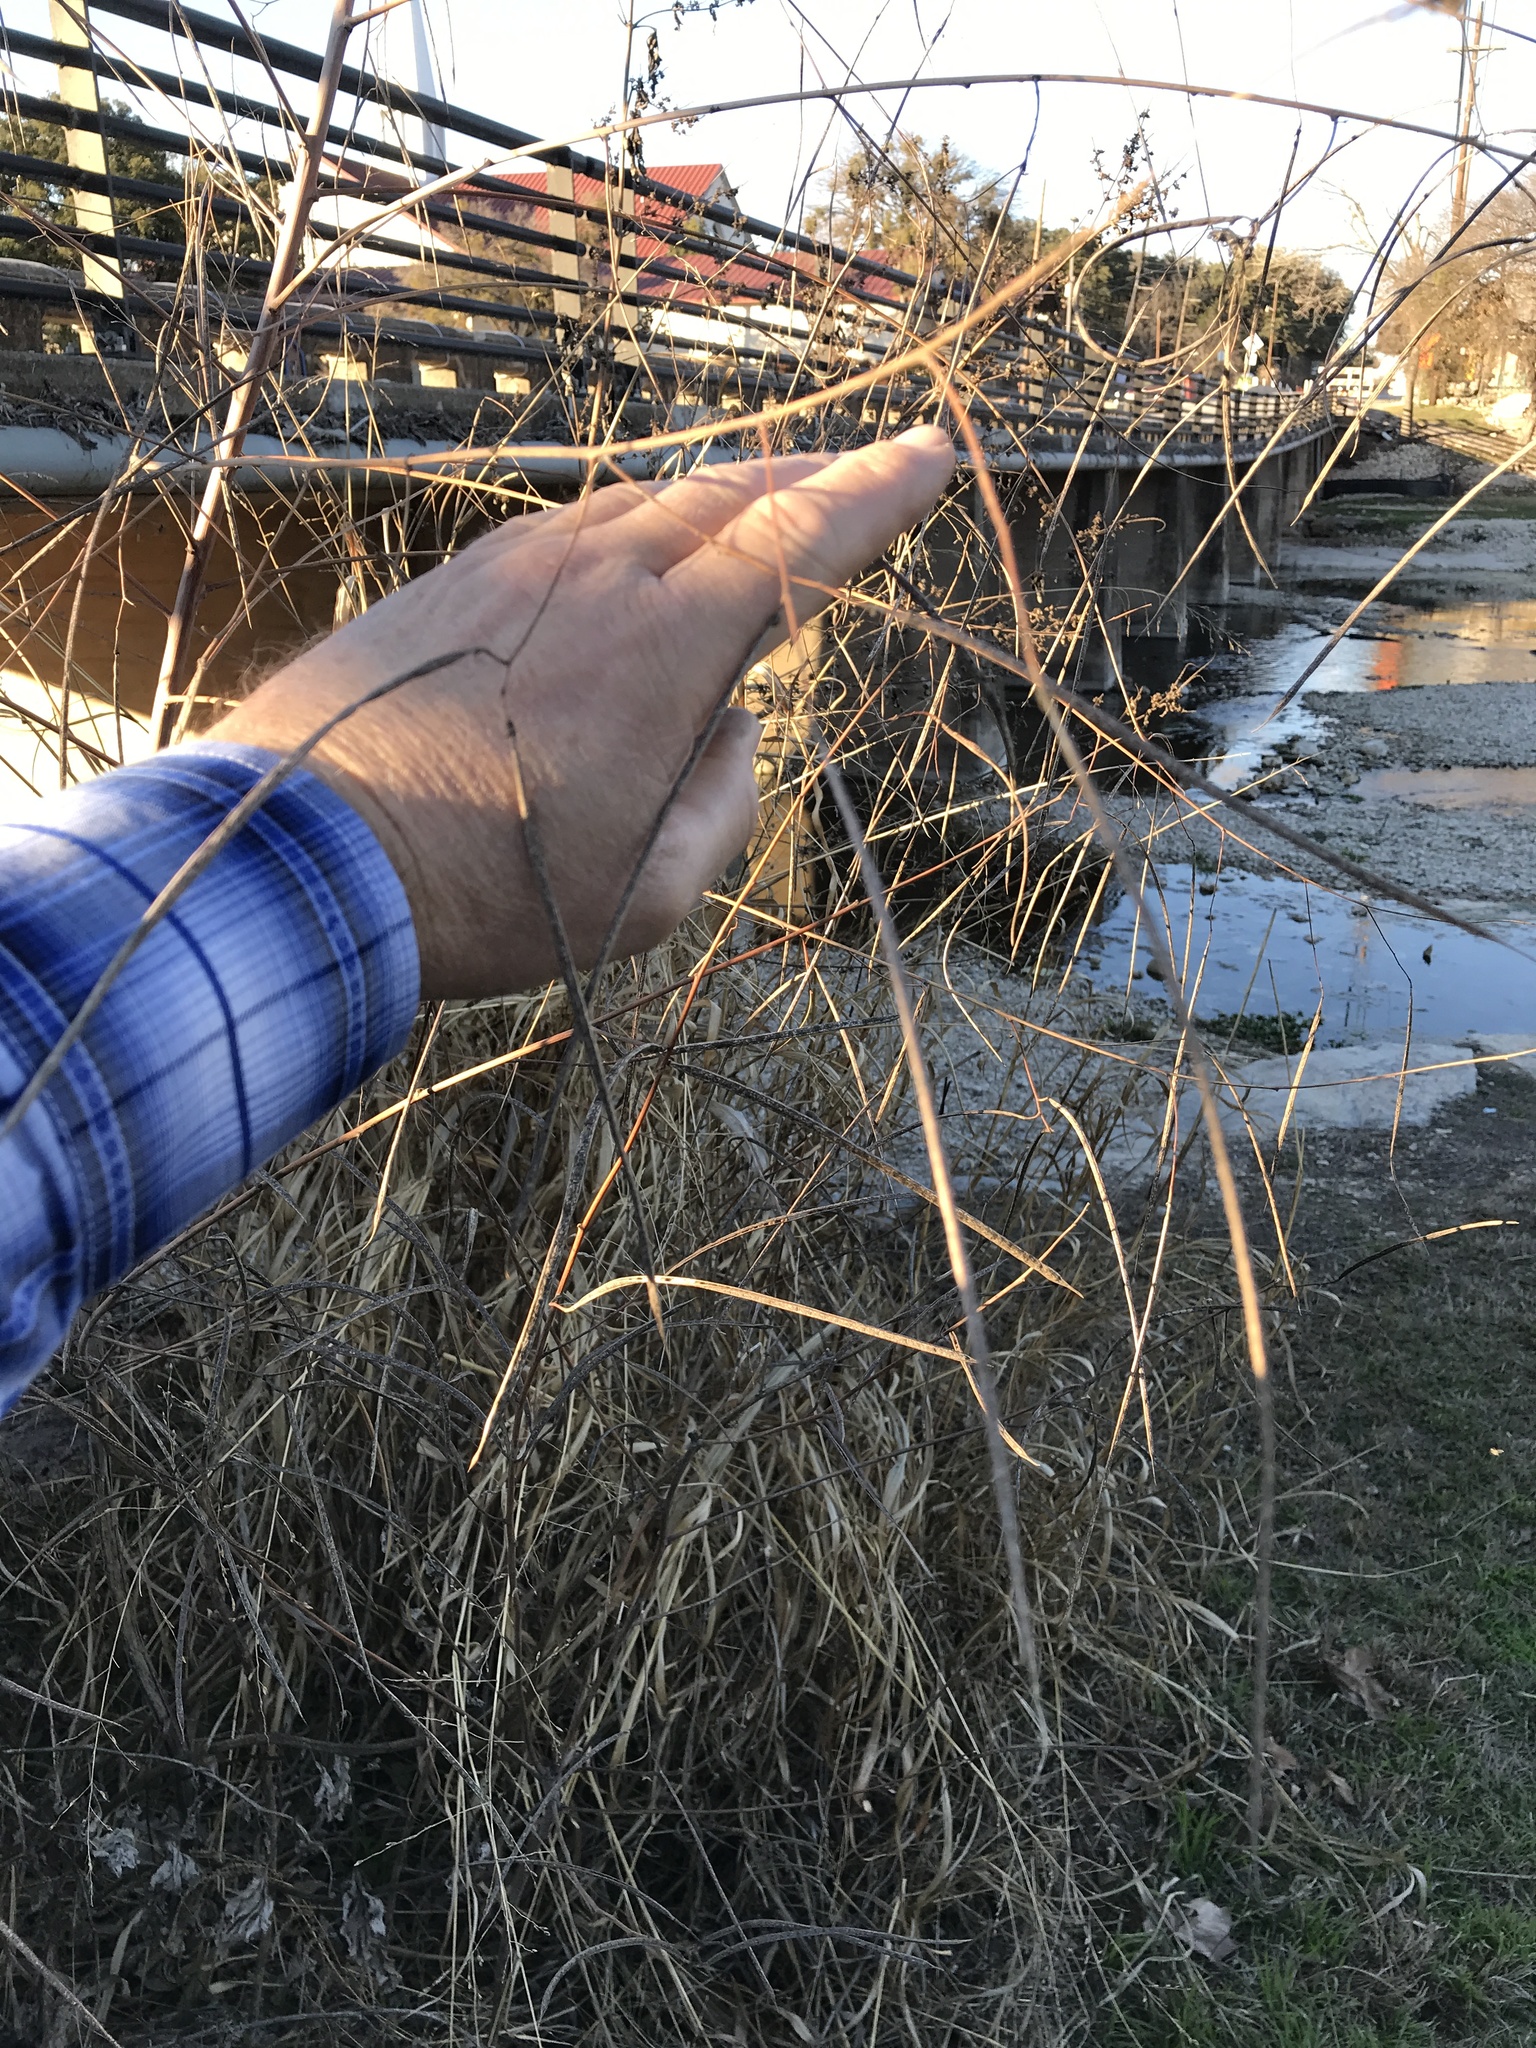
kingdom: Plantae
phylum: Tracheophyta
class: Magnoliopsida
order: Fabales
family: Fabaceae
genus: Sesbania
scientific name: Sesbania herbacea
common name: Bigpod sesbania
